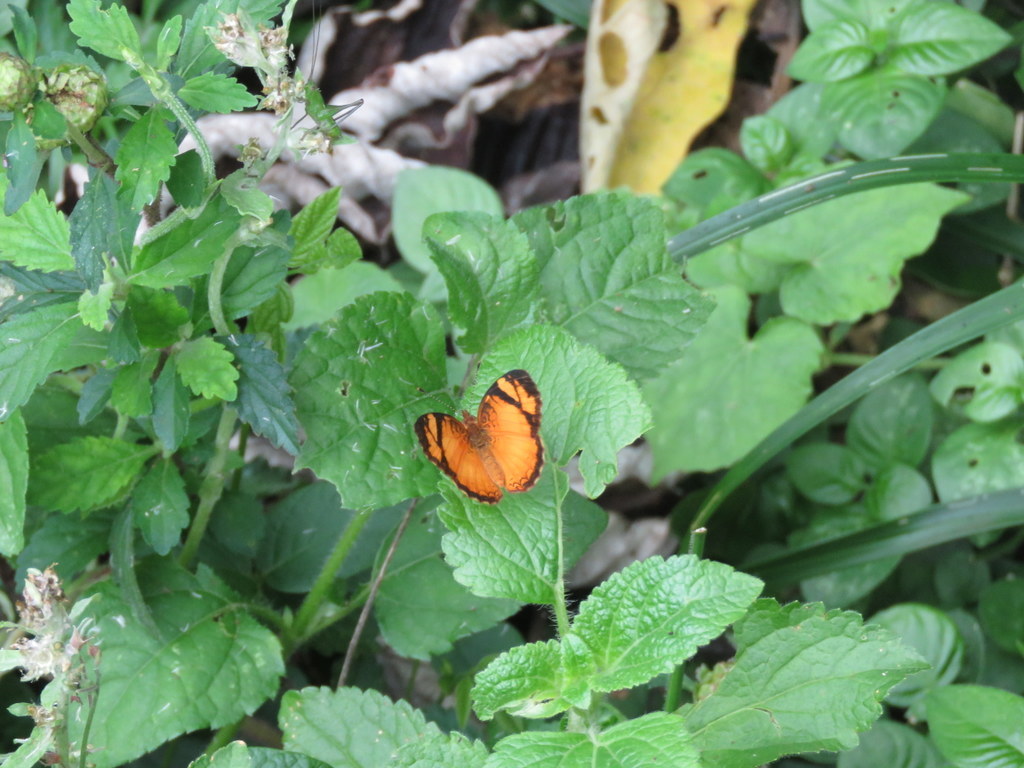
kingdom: Animalia
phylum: Arthropoda
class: Insecta
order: Lepidoptera
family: Nymphalidae
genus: Tegosa
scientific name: Tegosa claudina
